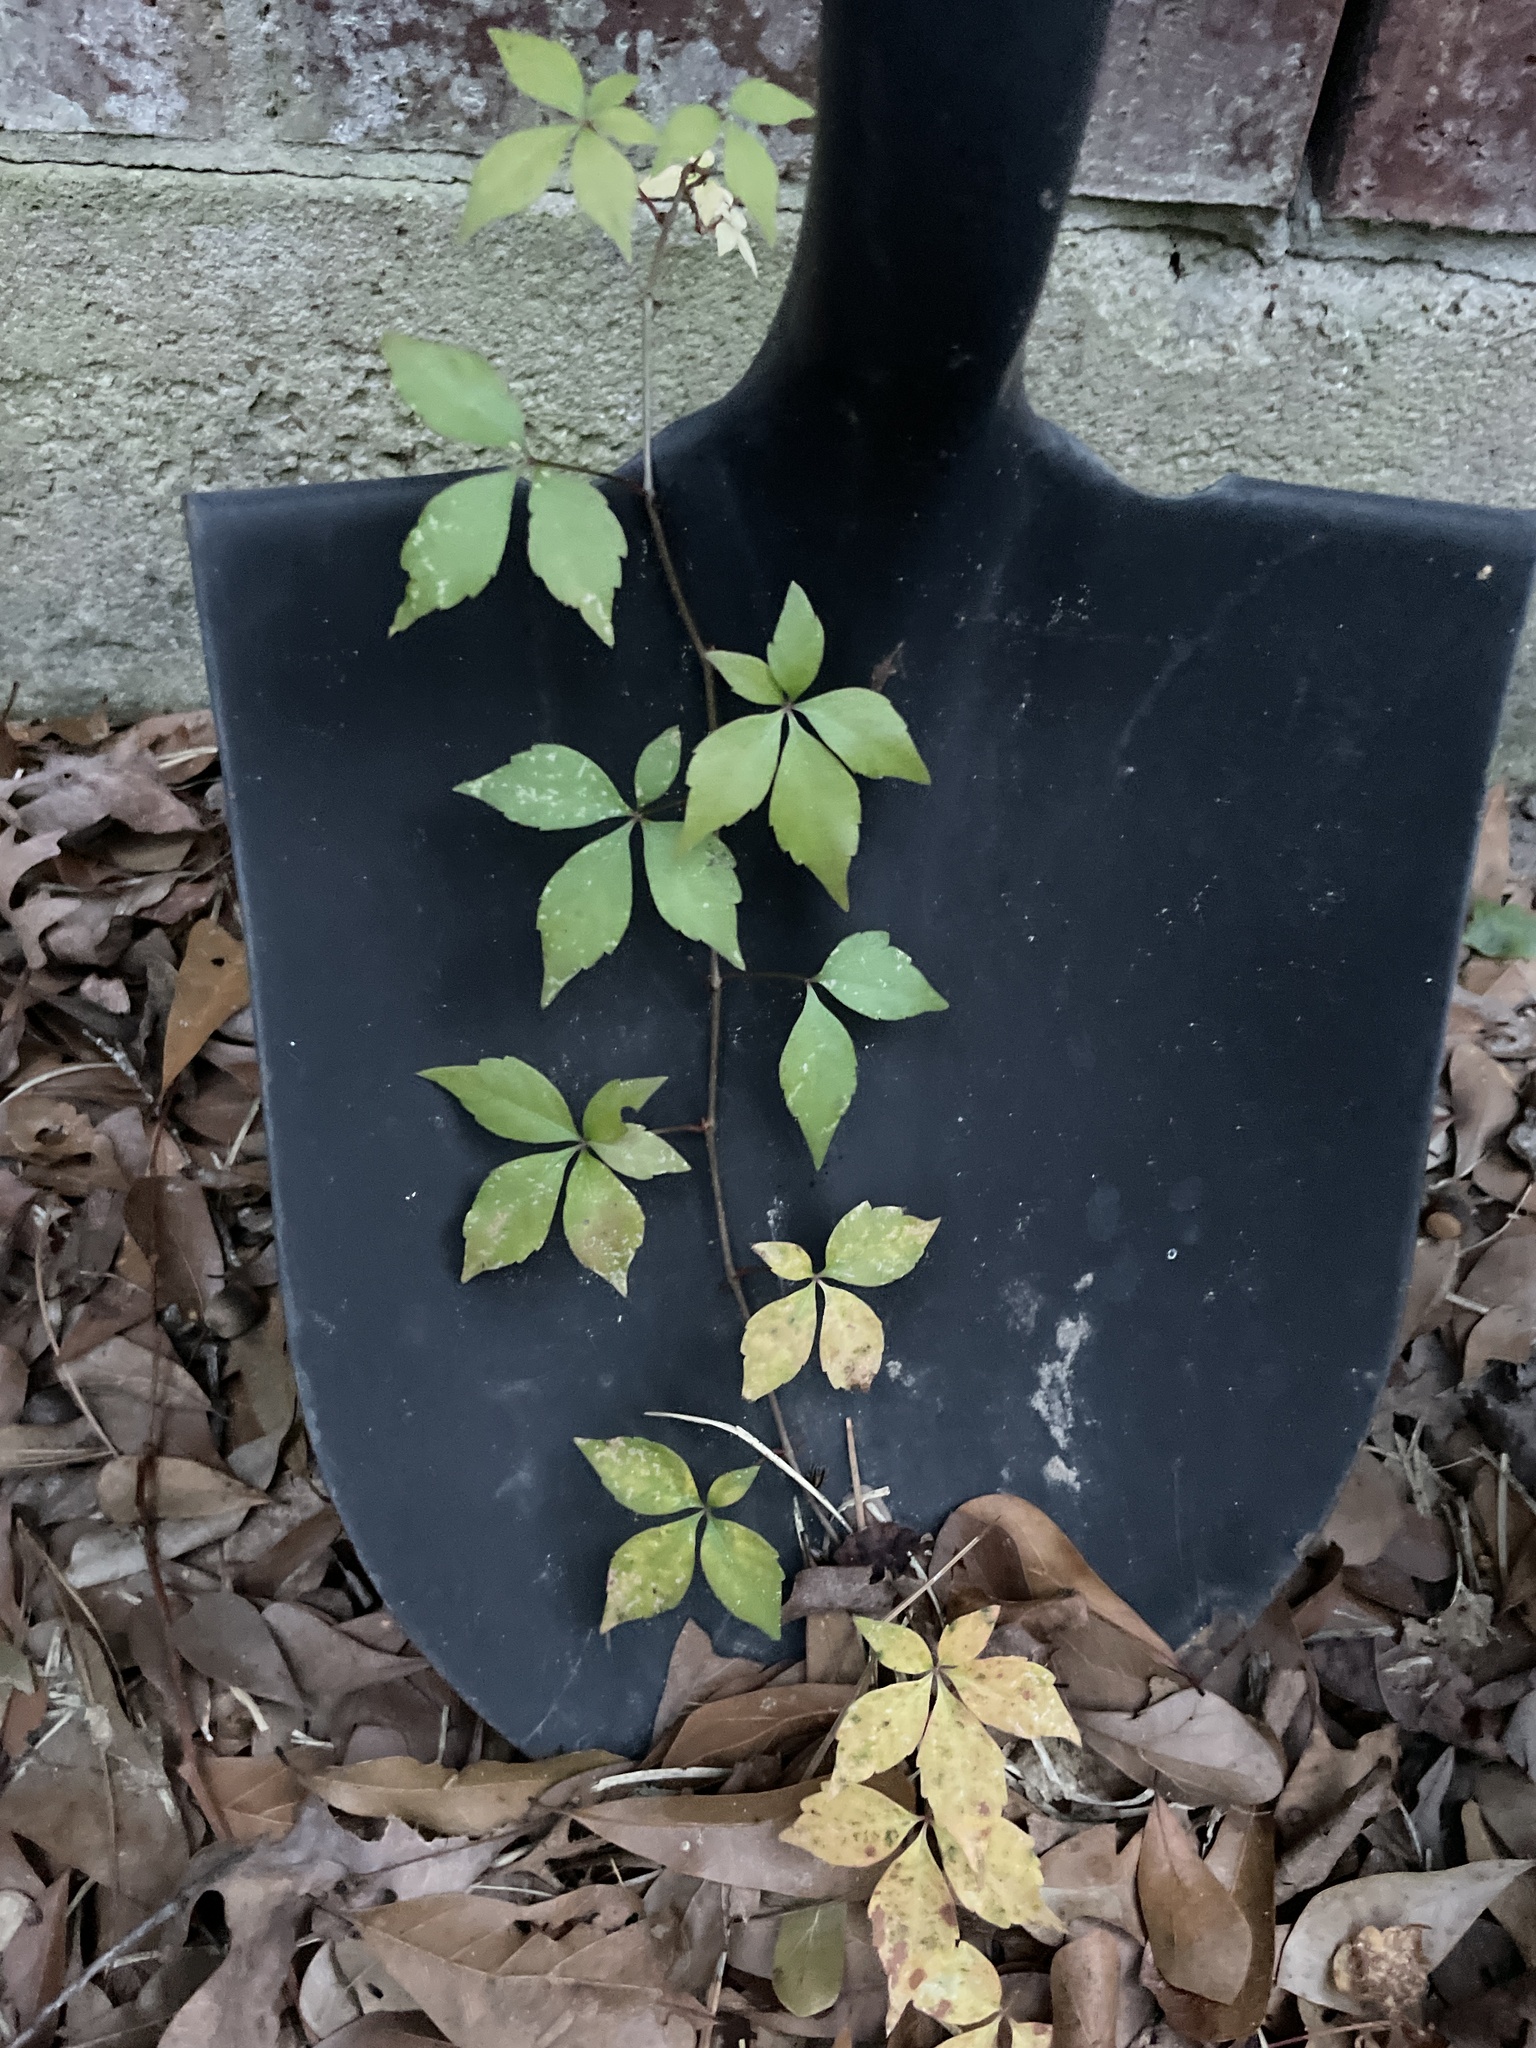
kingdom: Plantae
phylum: Tracheophyta
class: Magnoliopsida
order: Vitales
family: Vitaceae
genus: Parthenocissus
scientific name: Parthenocissus quinquefolia
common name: Virginia-creeper
